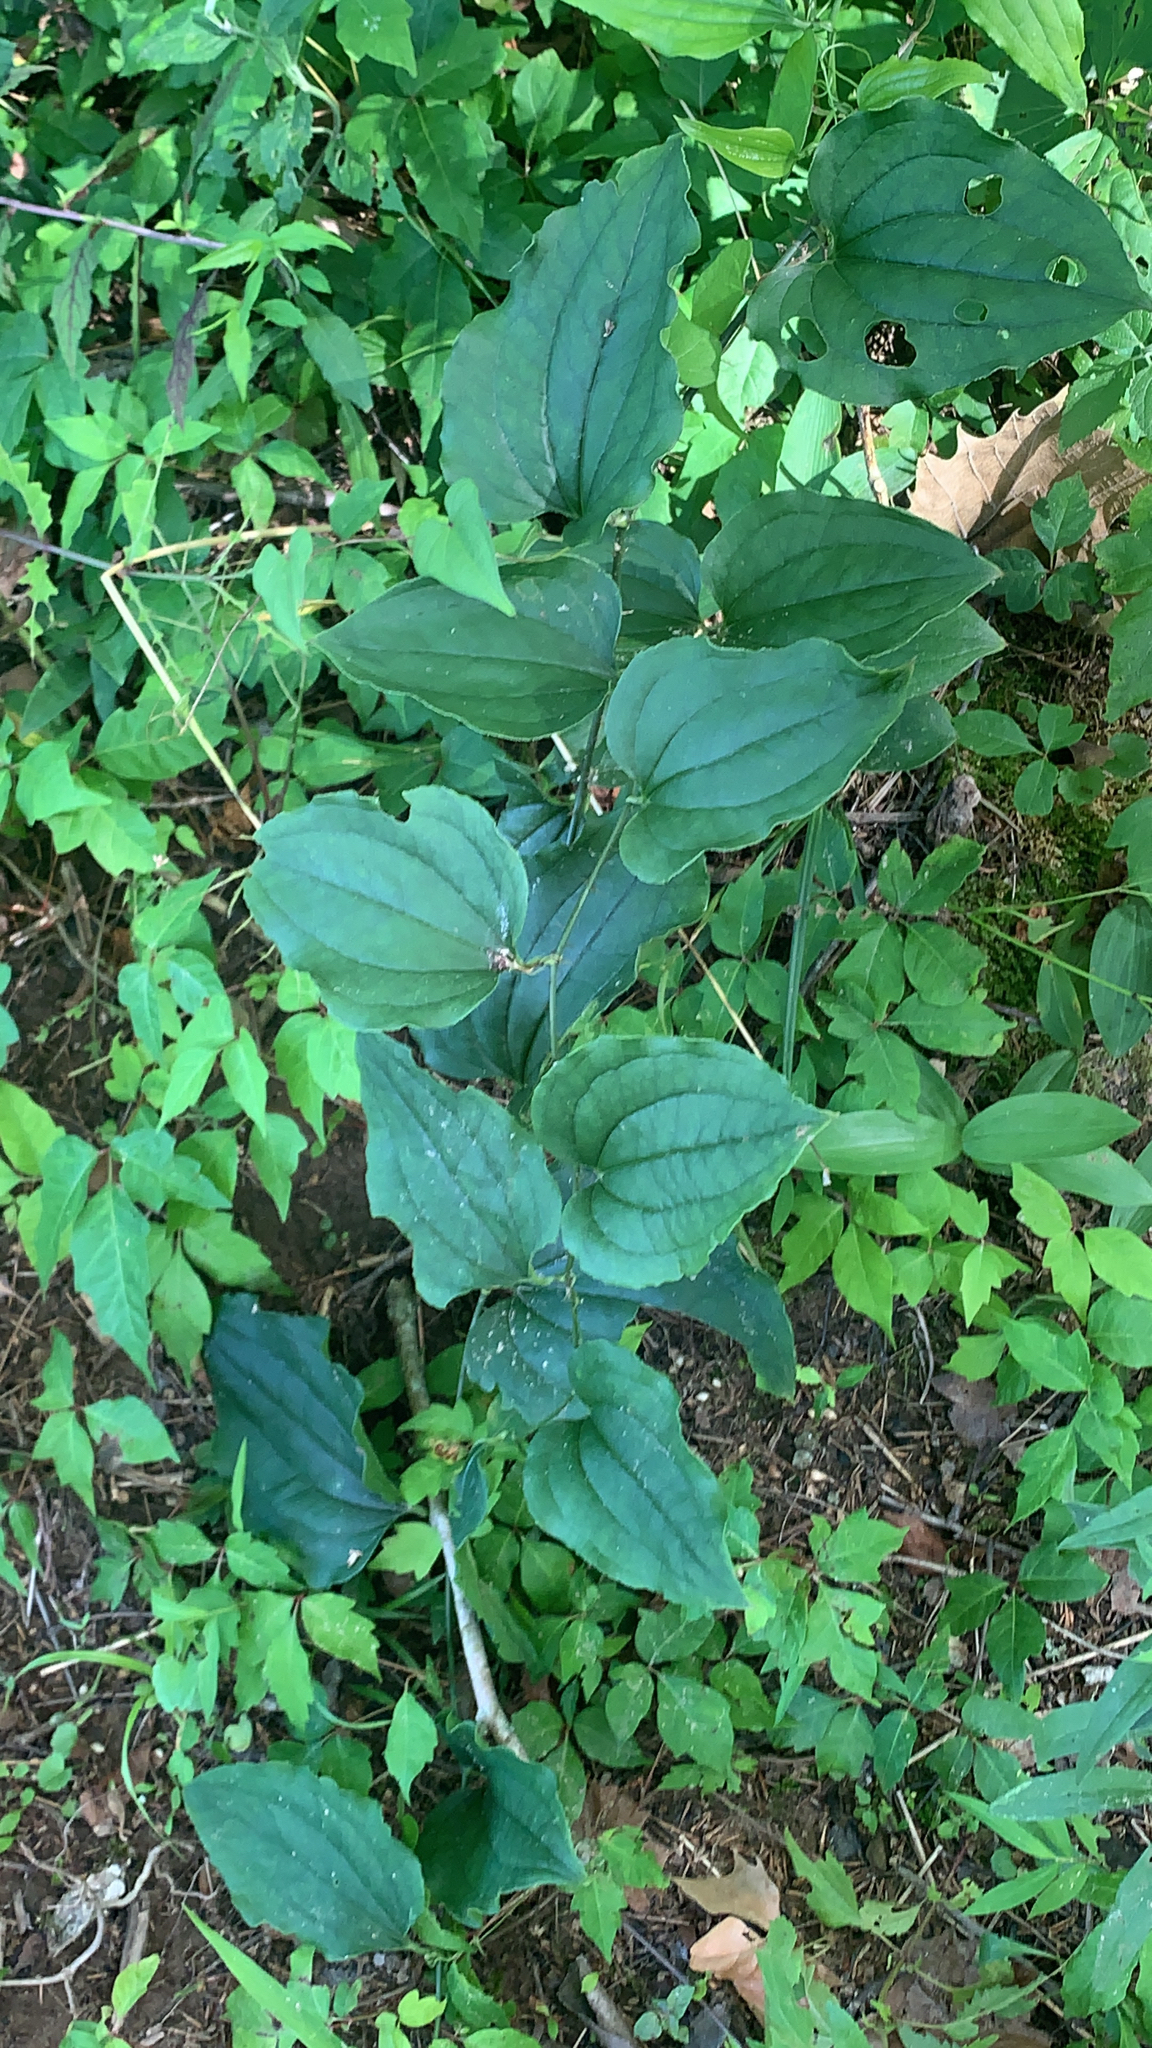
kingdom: Plantae
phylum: Tracheophyta
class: Liliopsida
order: Liliales
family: Smilacaceae
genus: Smilax
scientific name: Smilax tamnoides
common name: Hellfetter
